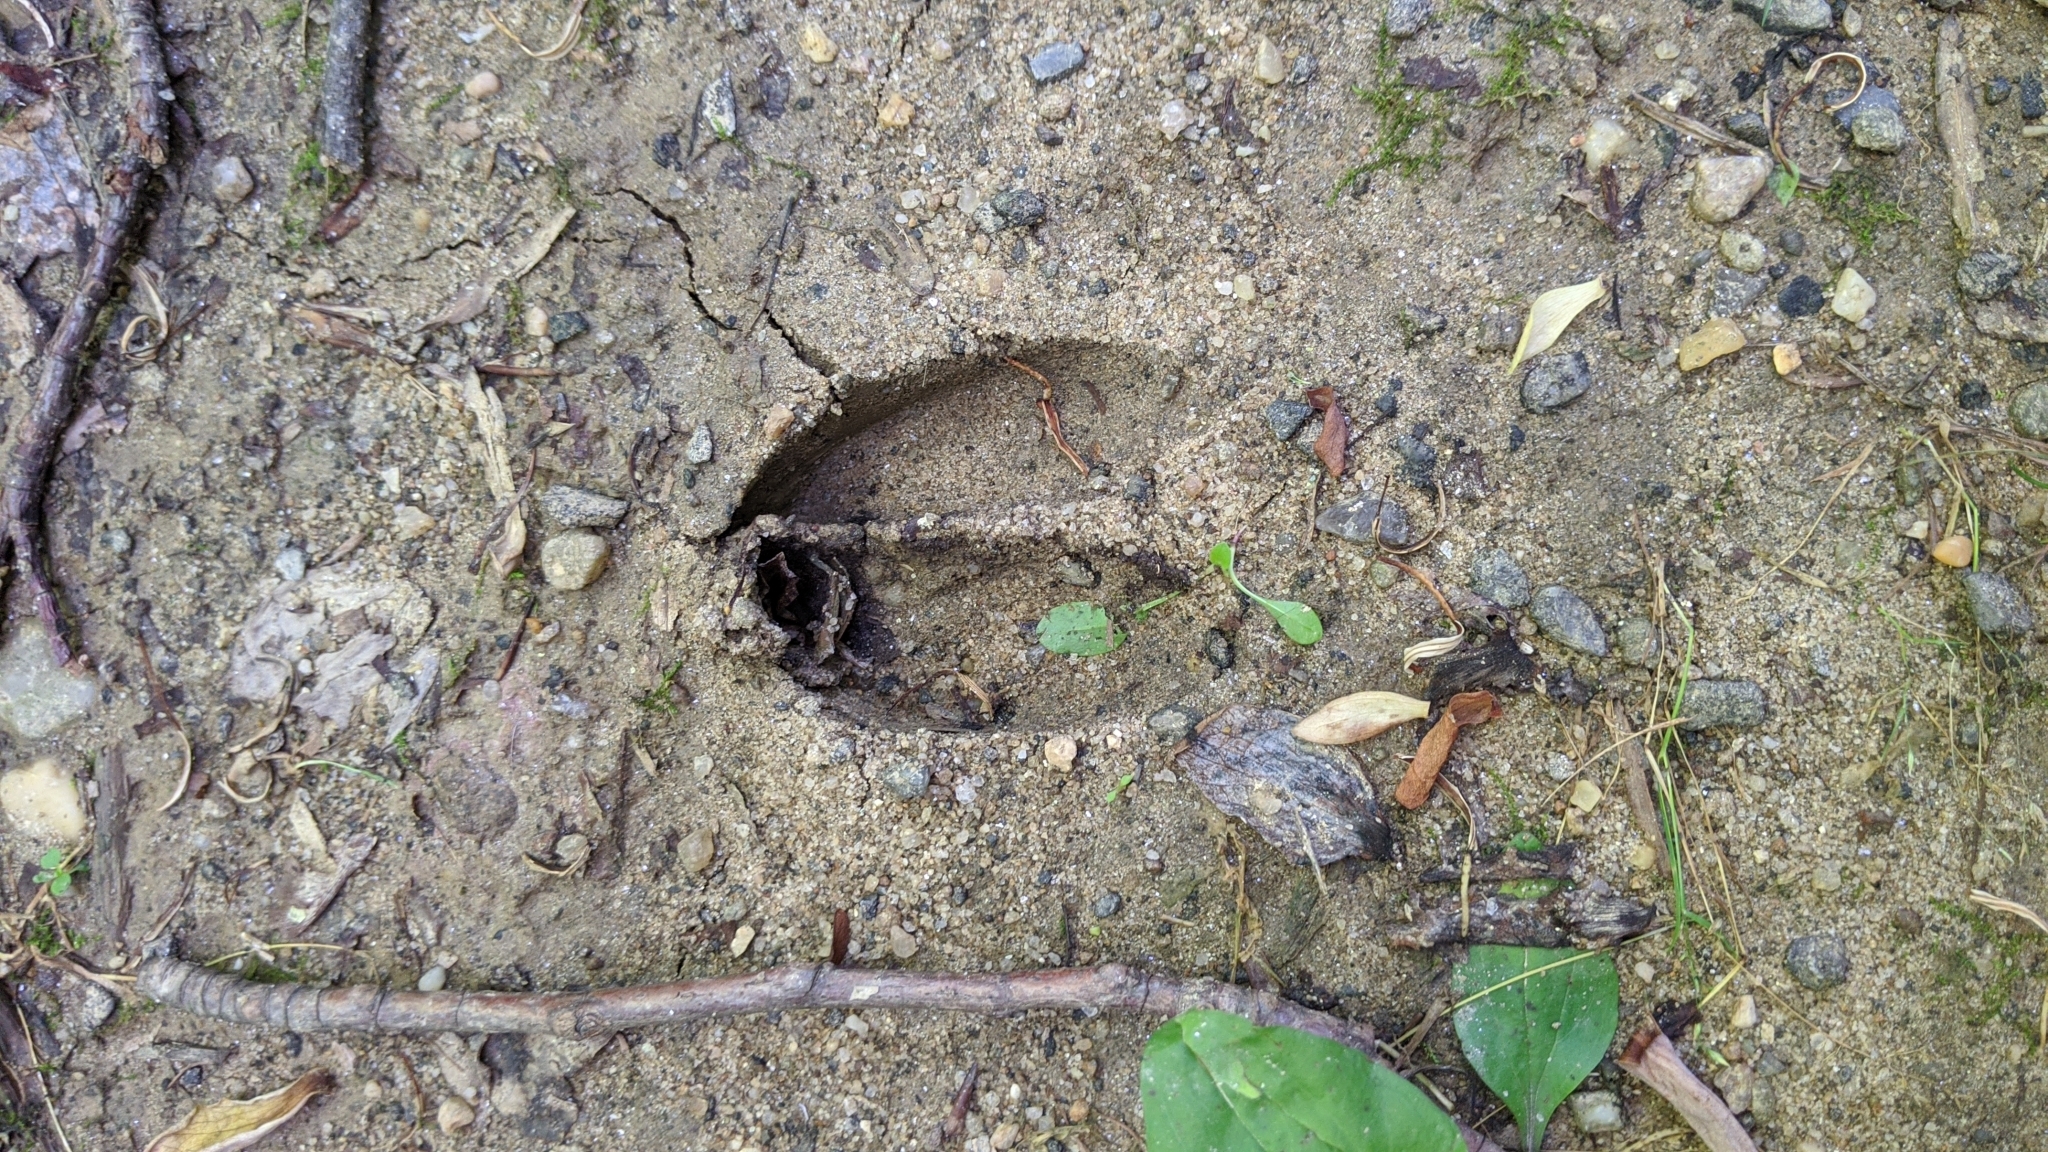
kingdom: Animalia
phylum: Chordata
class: Mammalia
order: Artiodactyla
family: Cervidae
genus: Odocoileus
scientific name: Odocoileus virginianus
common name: White-tailed deer
